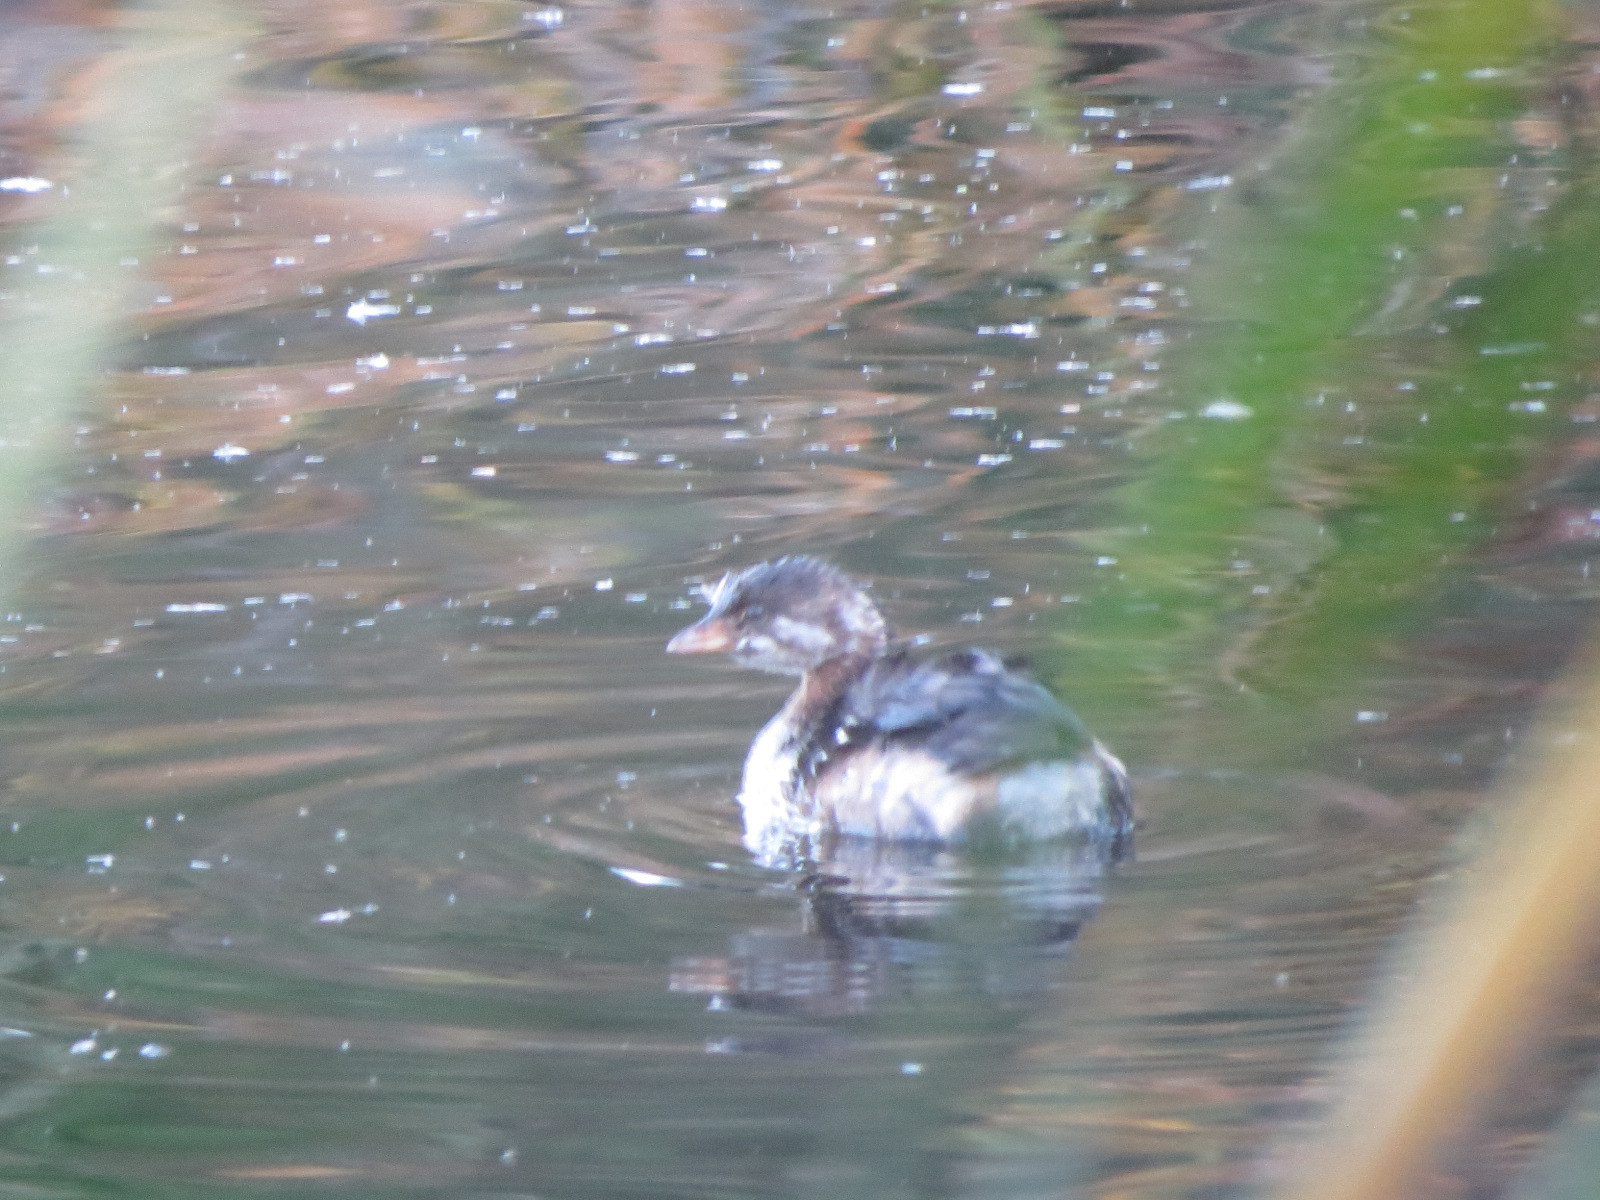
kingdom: Animalia
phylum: Chordata
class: Aves
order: Podicipediformes
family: Podicipedidae
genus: Podilymbus
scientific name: Podilymbus podiceps
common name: Pied-billed grebe
